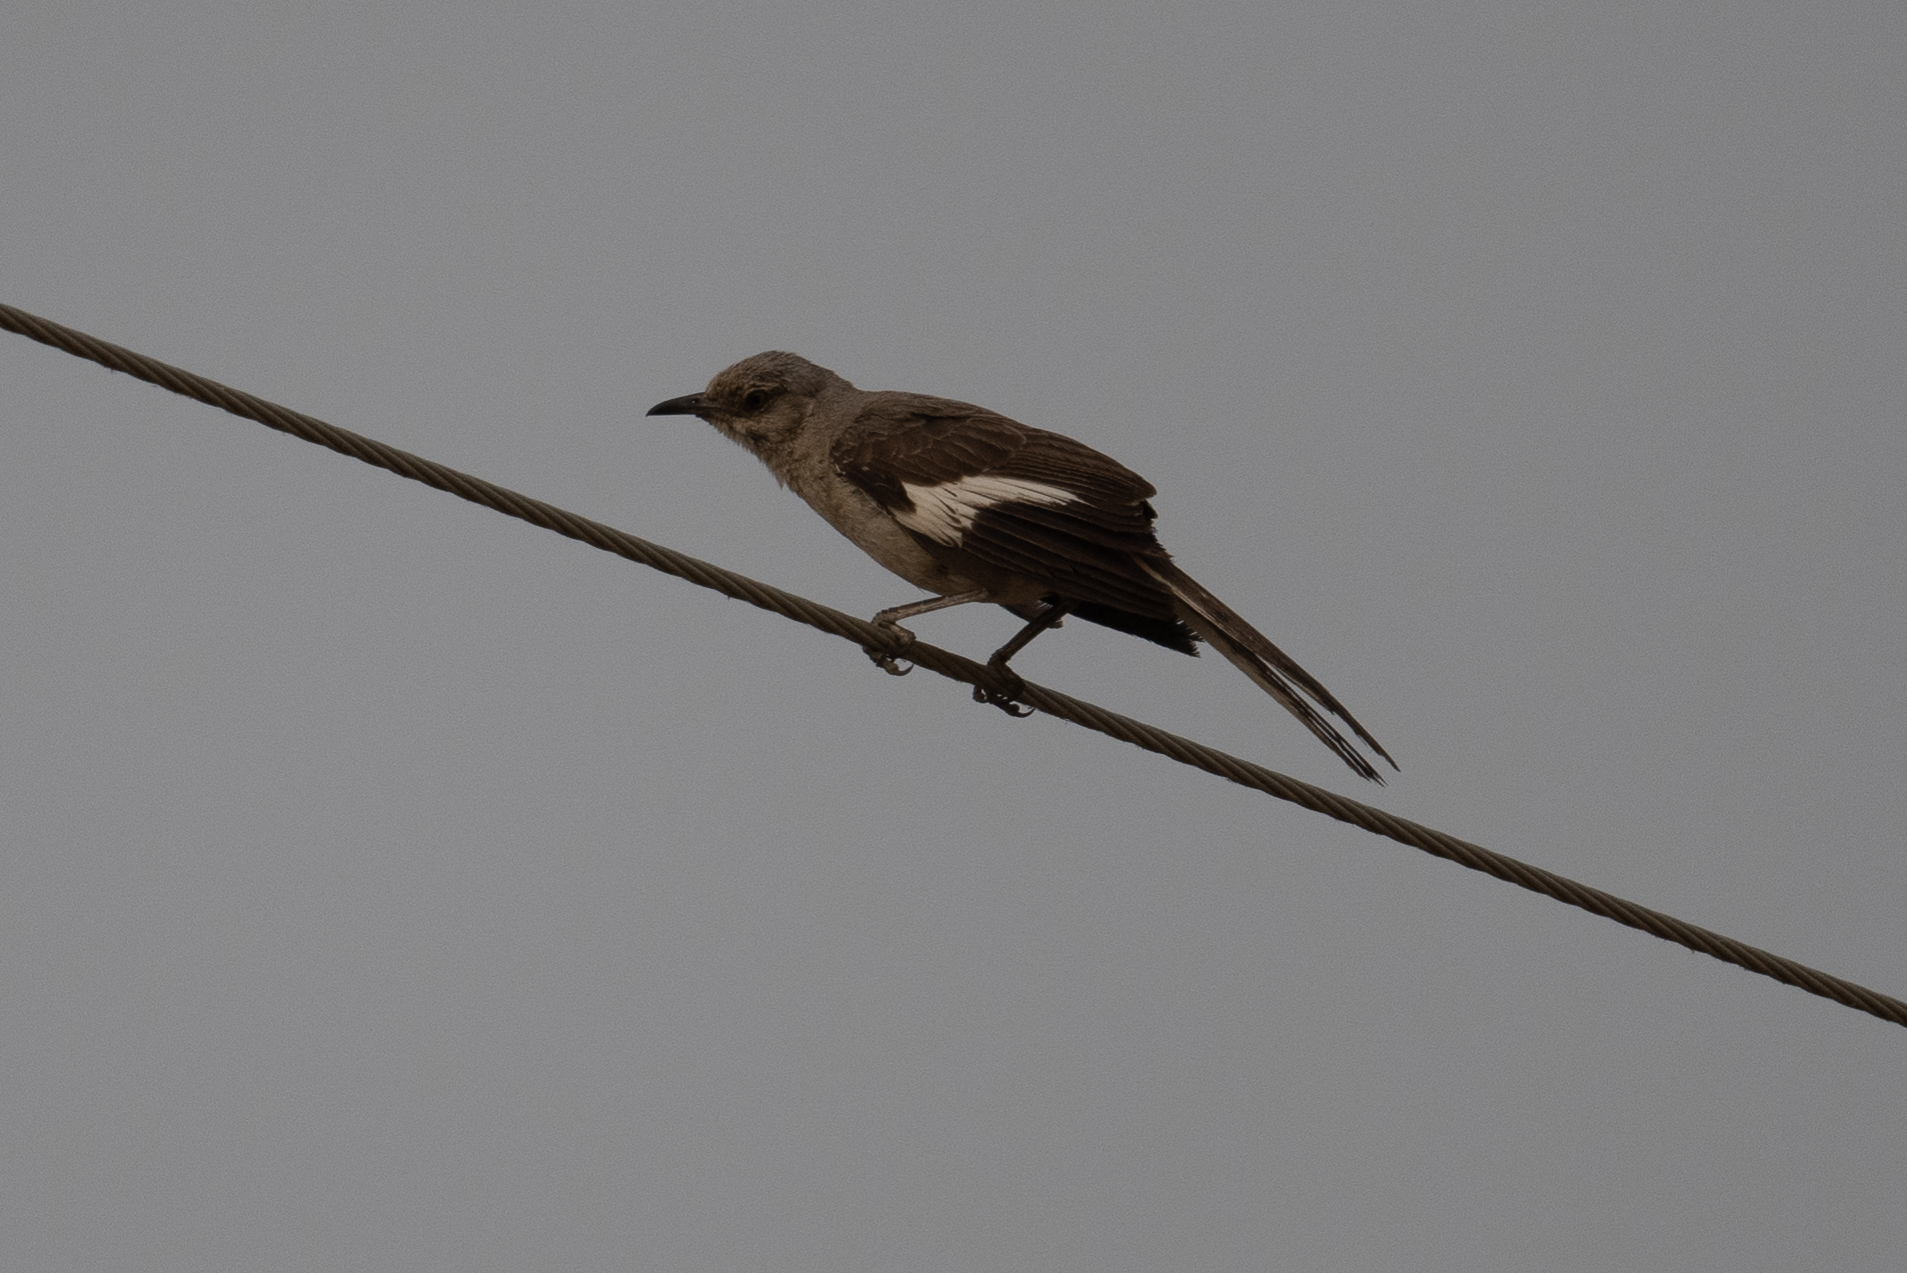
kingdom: Animalia
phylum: Chordata
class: Aves
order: Passeriformes
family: Mimidae
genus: Mimus
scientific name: Mimus polyglottos
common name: Northern mockingbird
